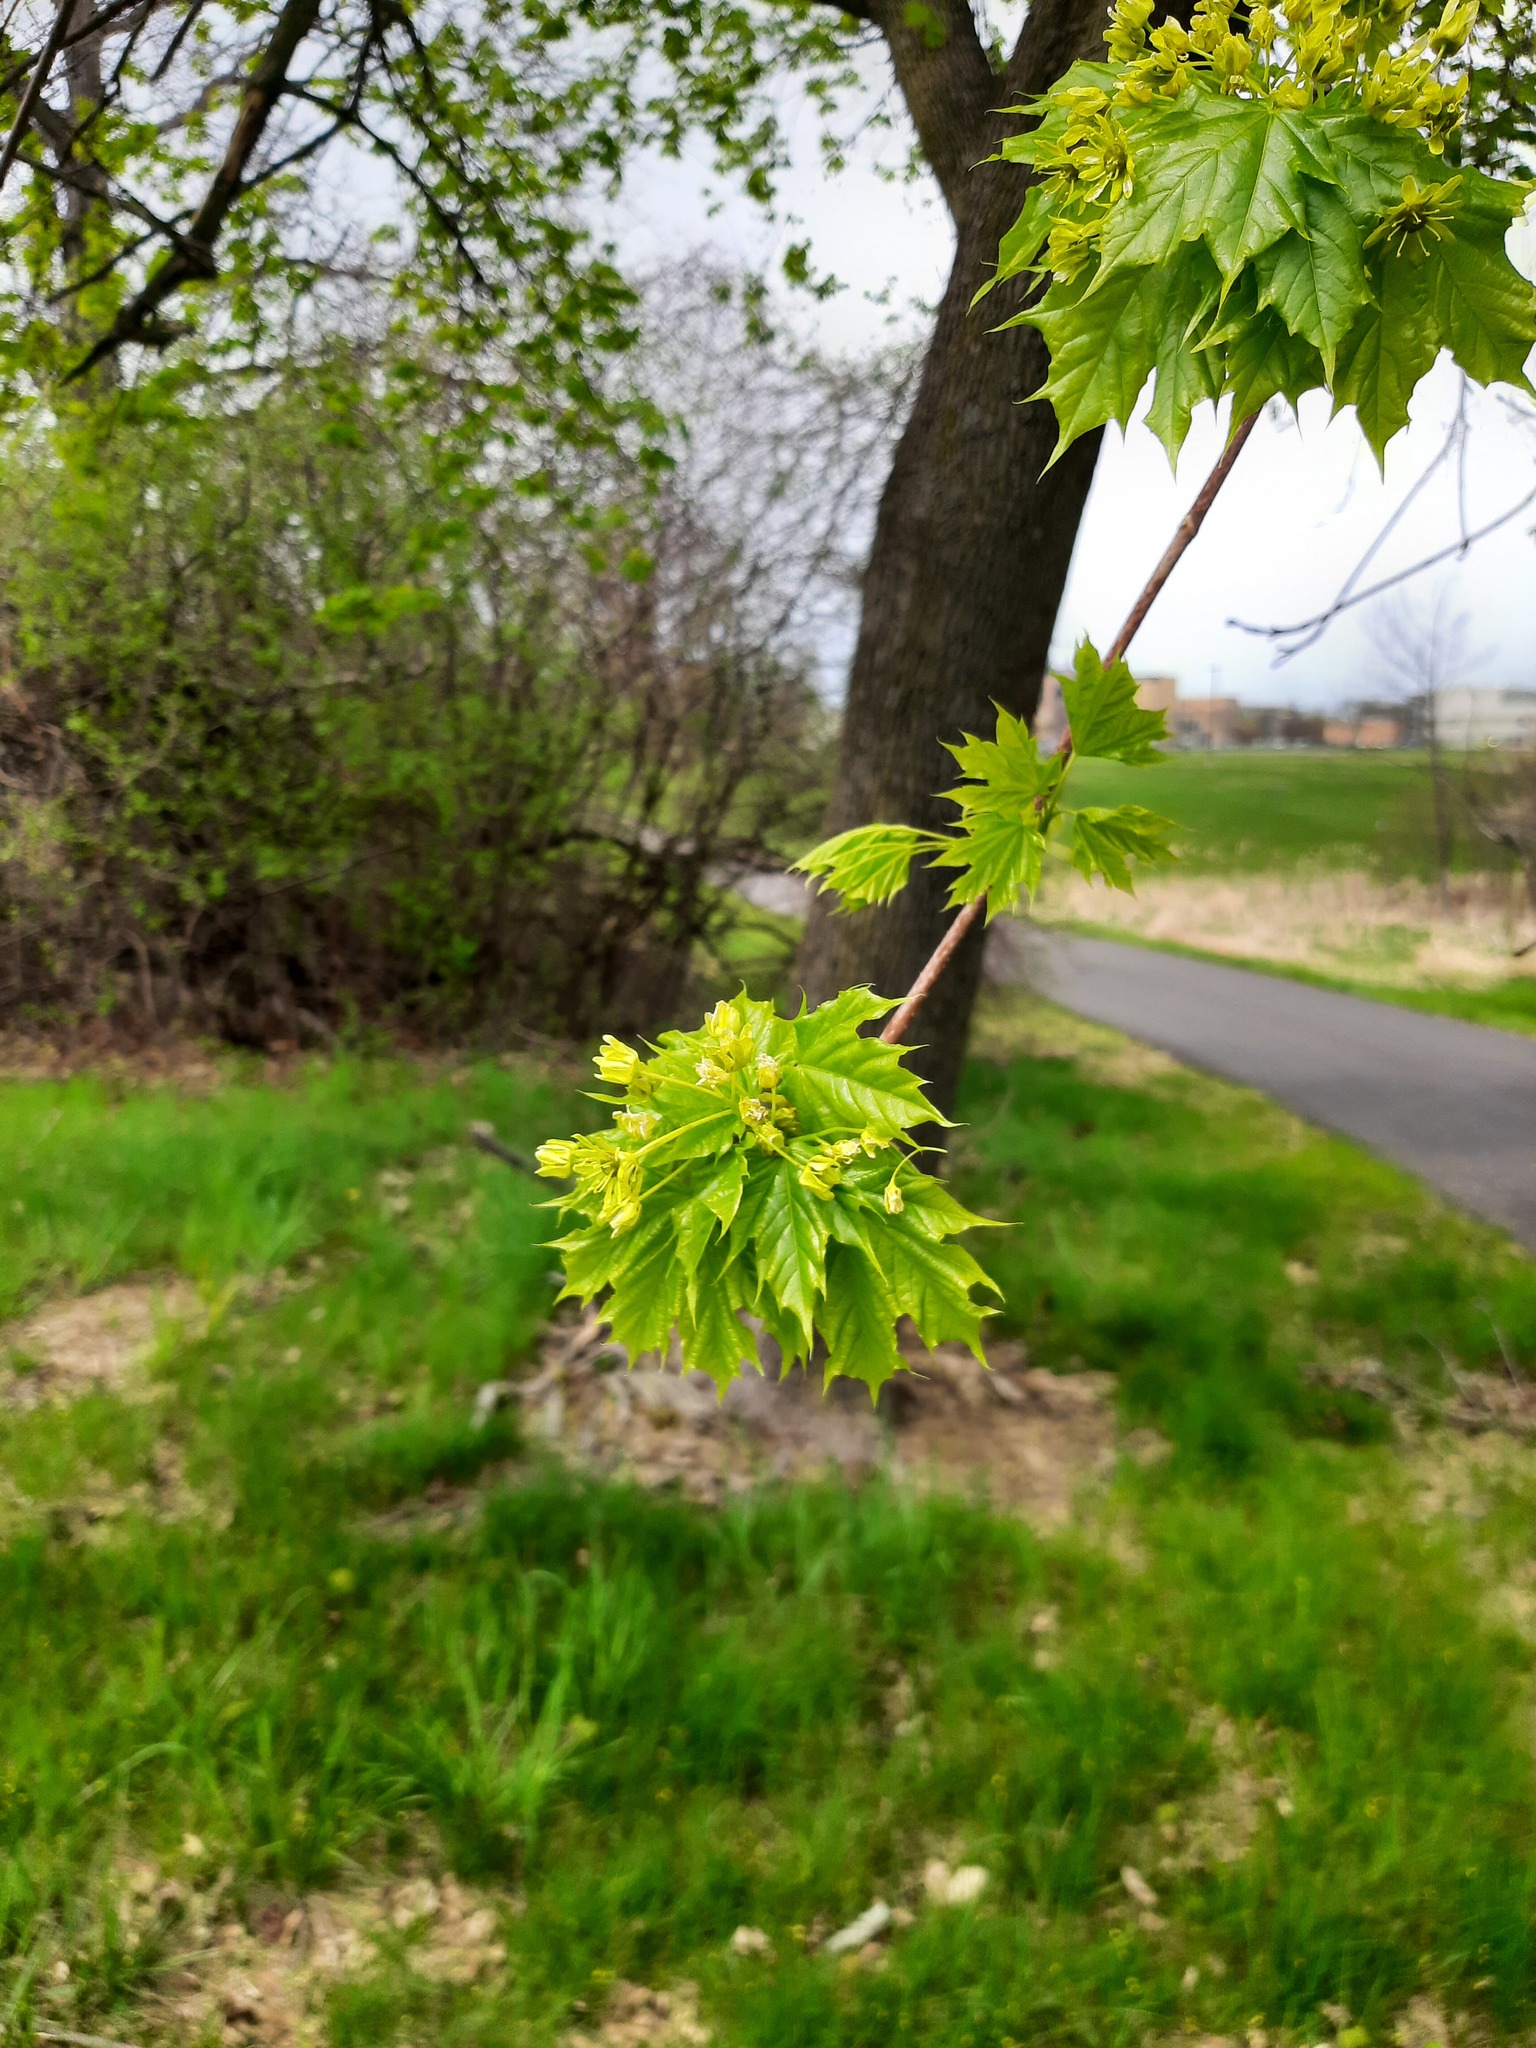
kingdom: Plantae
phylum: Tracheophyta
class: Magnoliopsida
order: Sapindales
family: Sapindaceae
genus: Acer
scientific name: Acer platanoides
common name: Norway maple
